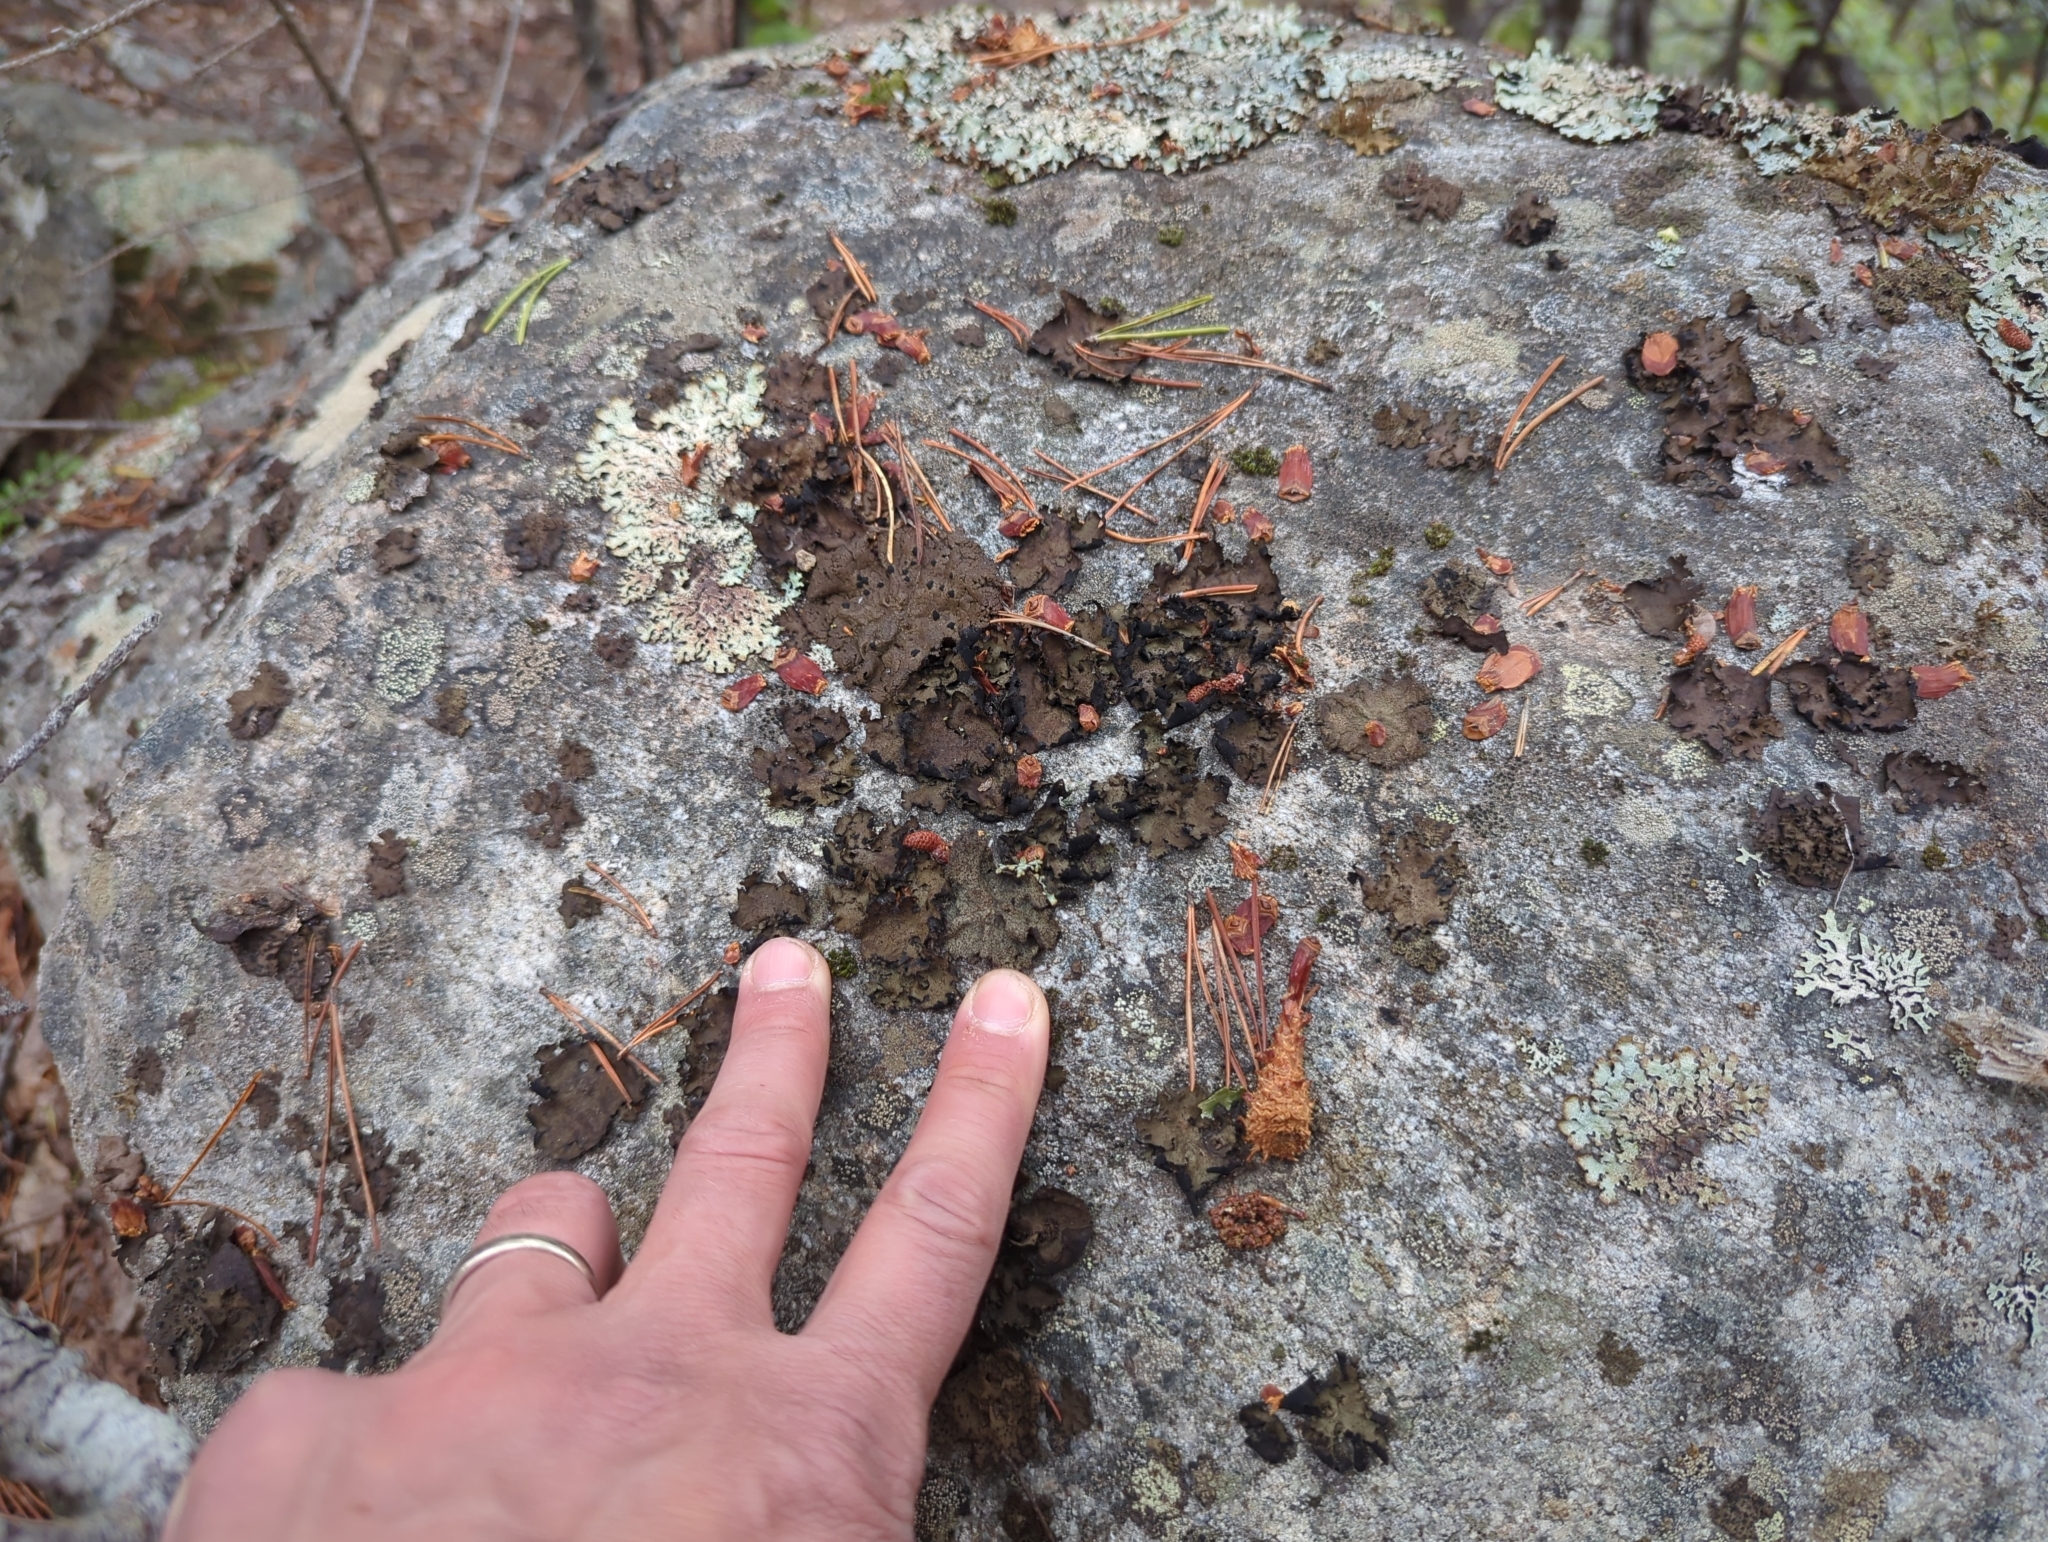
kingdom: Fungi
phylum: Ascomycota
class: Lecanoromycetes
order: Umbilicariales
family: Umbilicariaceae
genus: Umbilicaria
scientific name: Umbilicaria angulata
